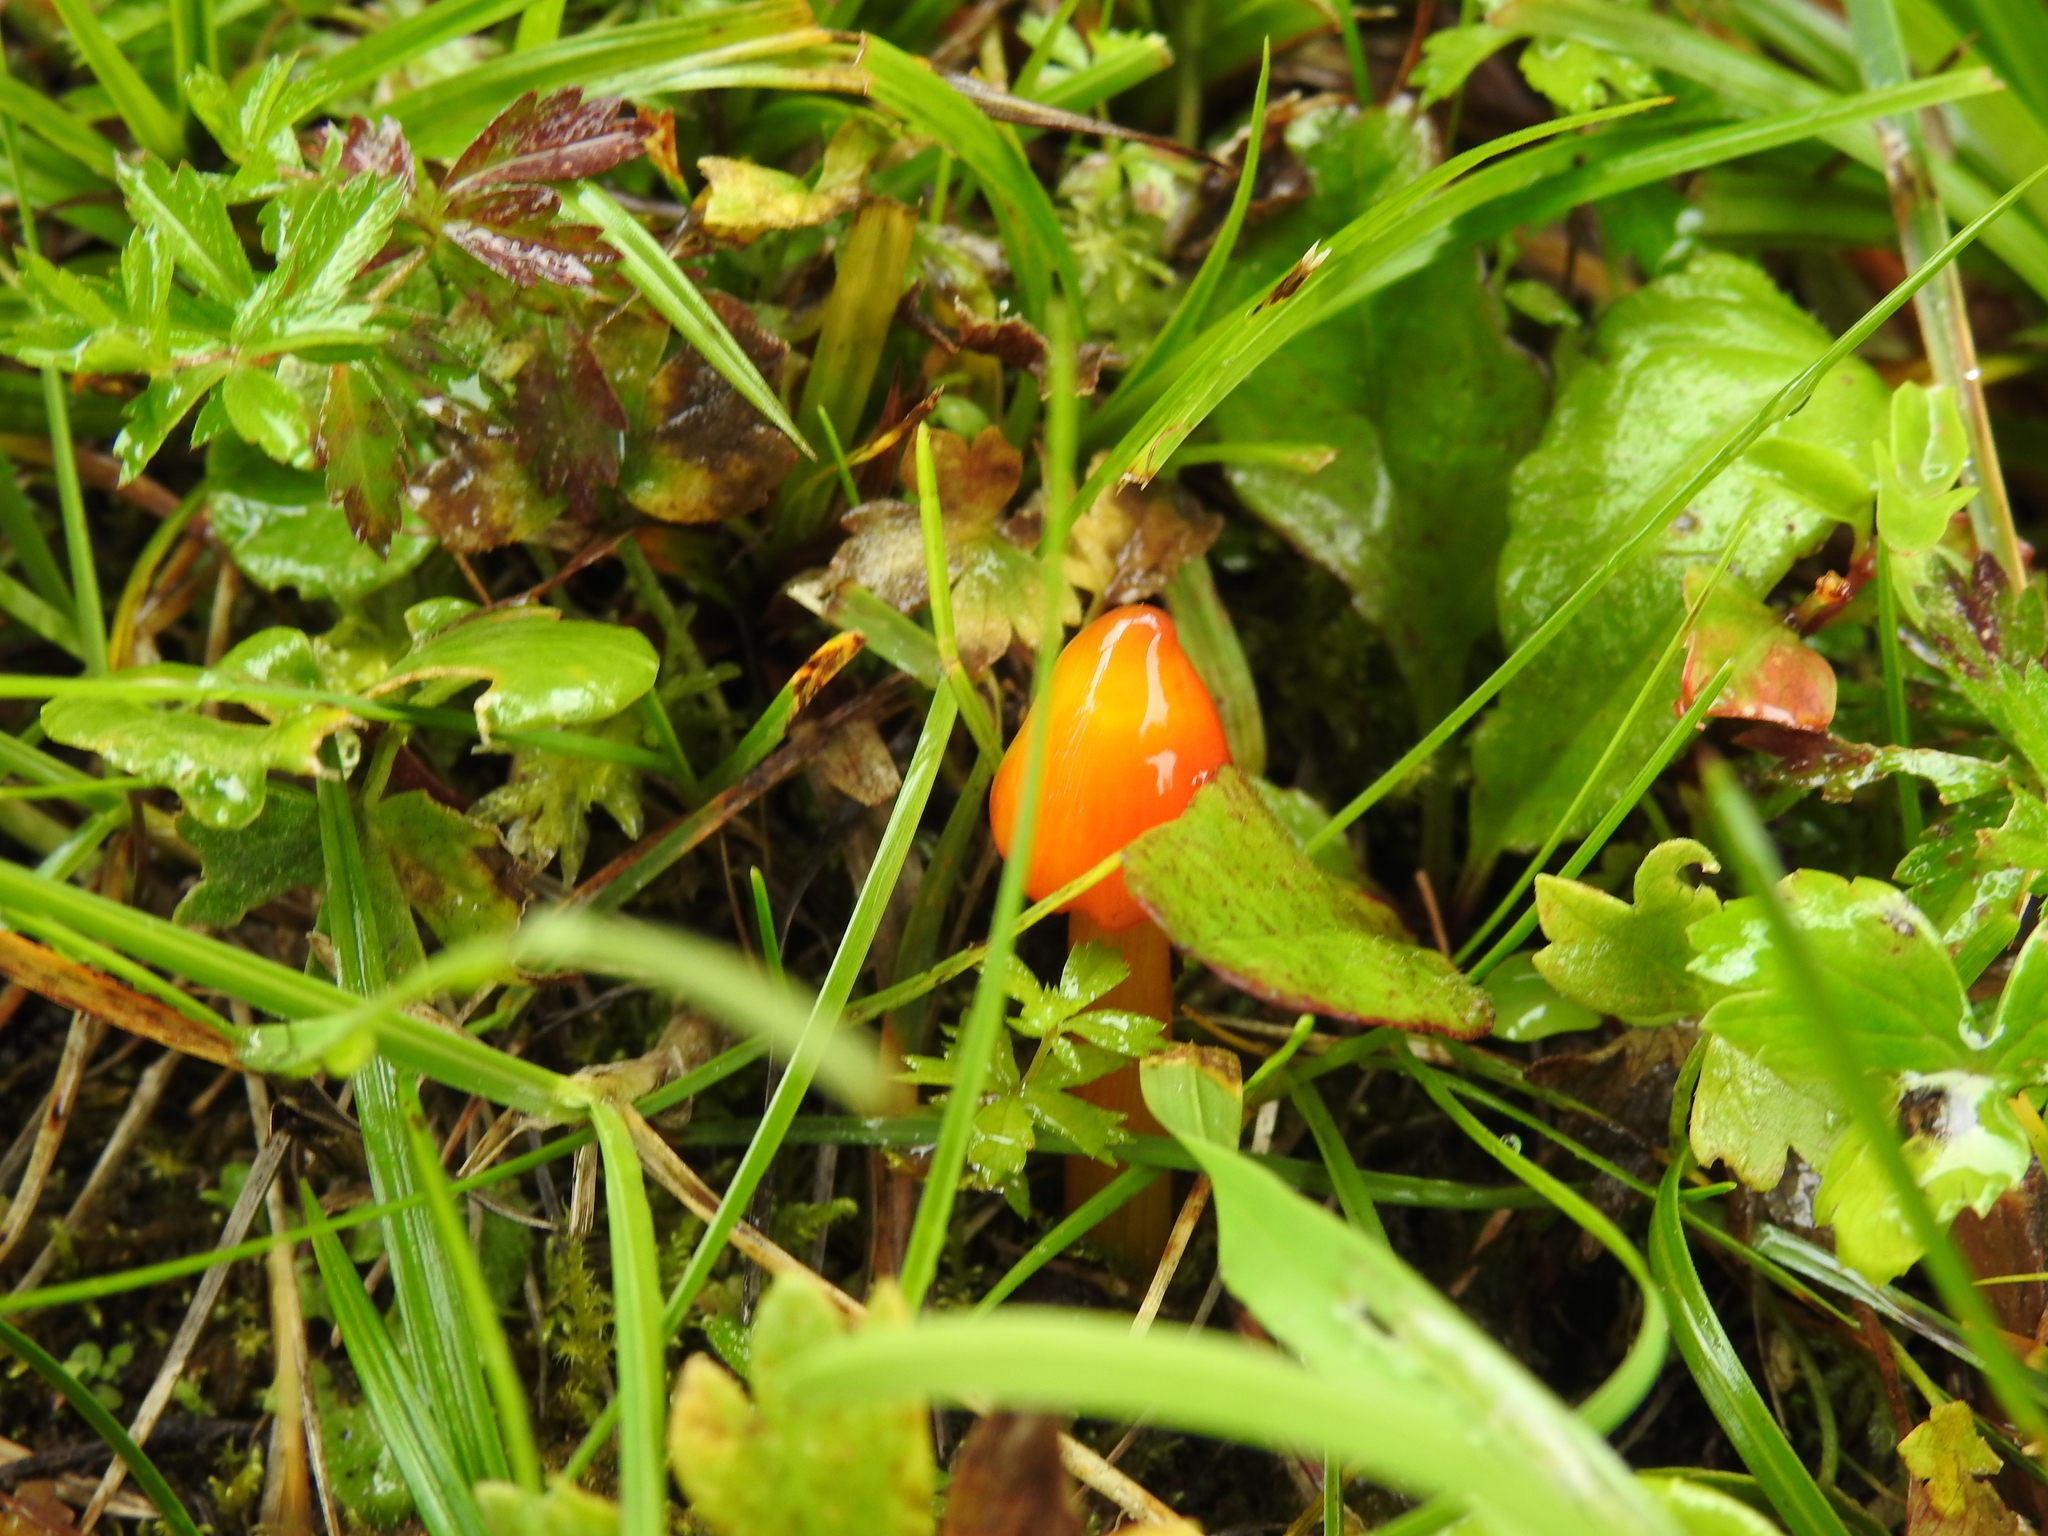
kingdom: Fungi
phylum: Basidiomycota
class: Agaricomycetes
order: Agaricales
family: Hygrophoraceae
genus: Hygrocybe
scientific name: Hygrocybe conica
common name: Blackening wax-cap
